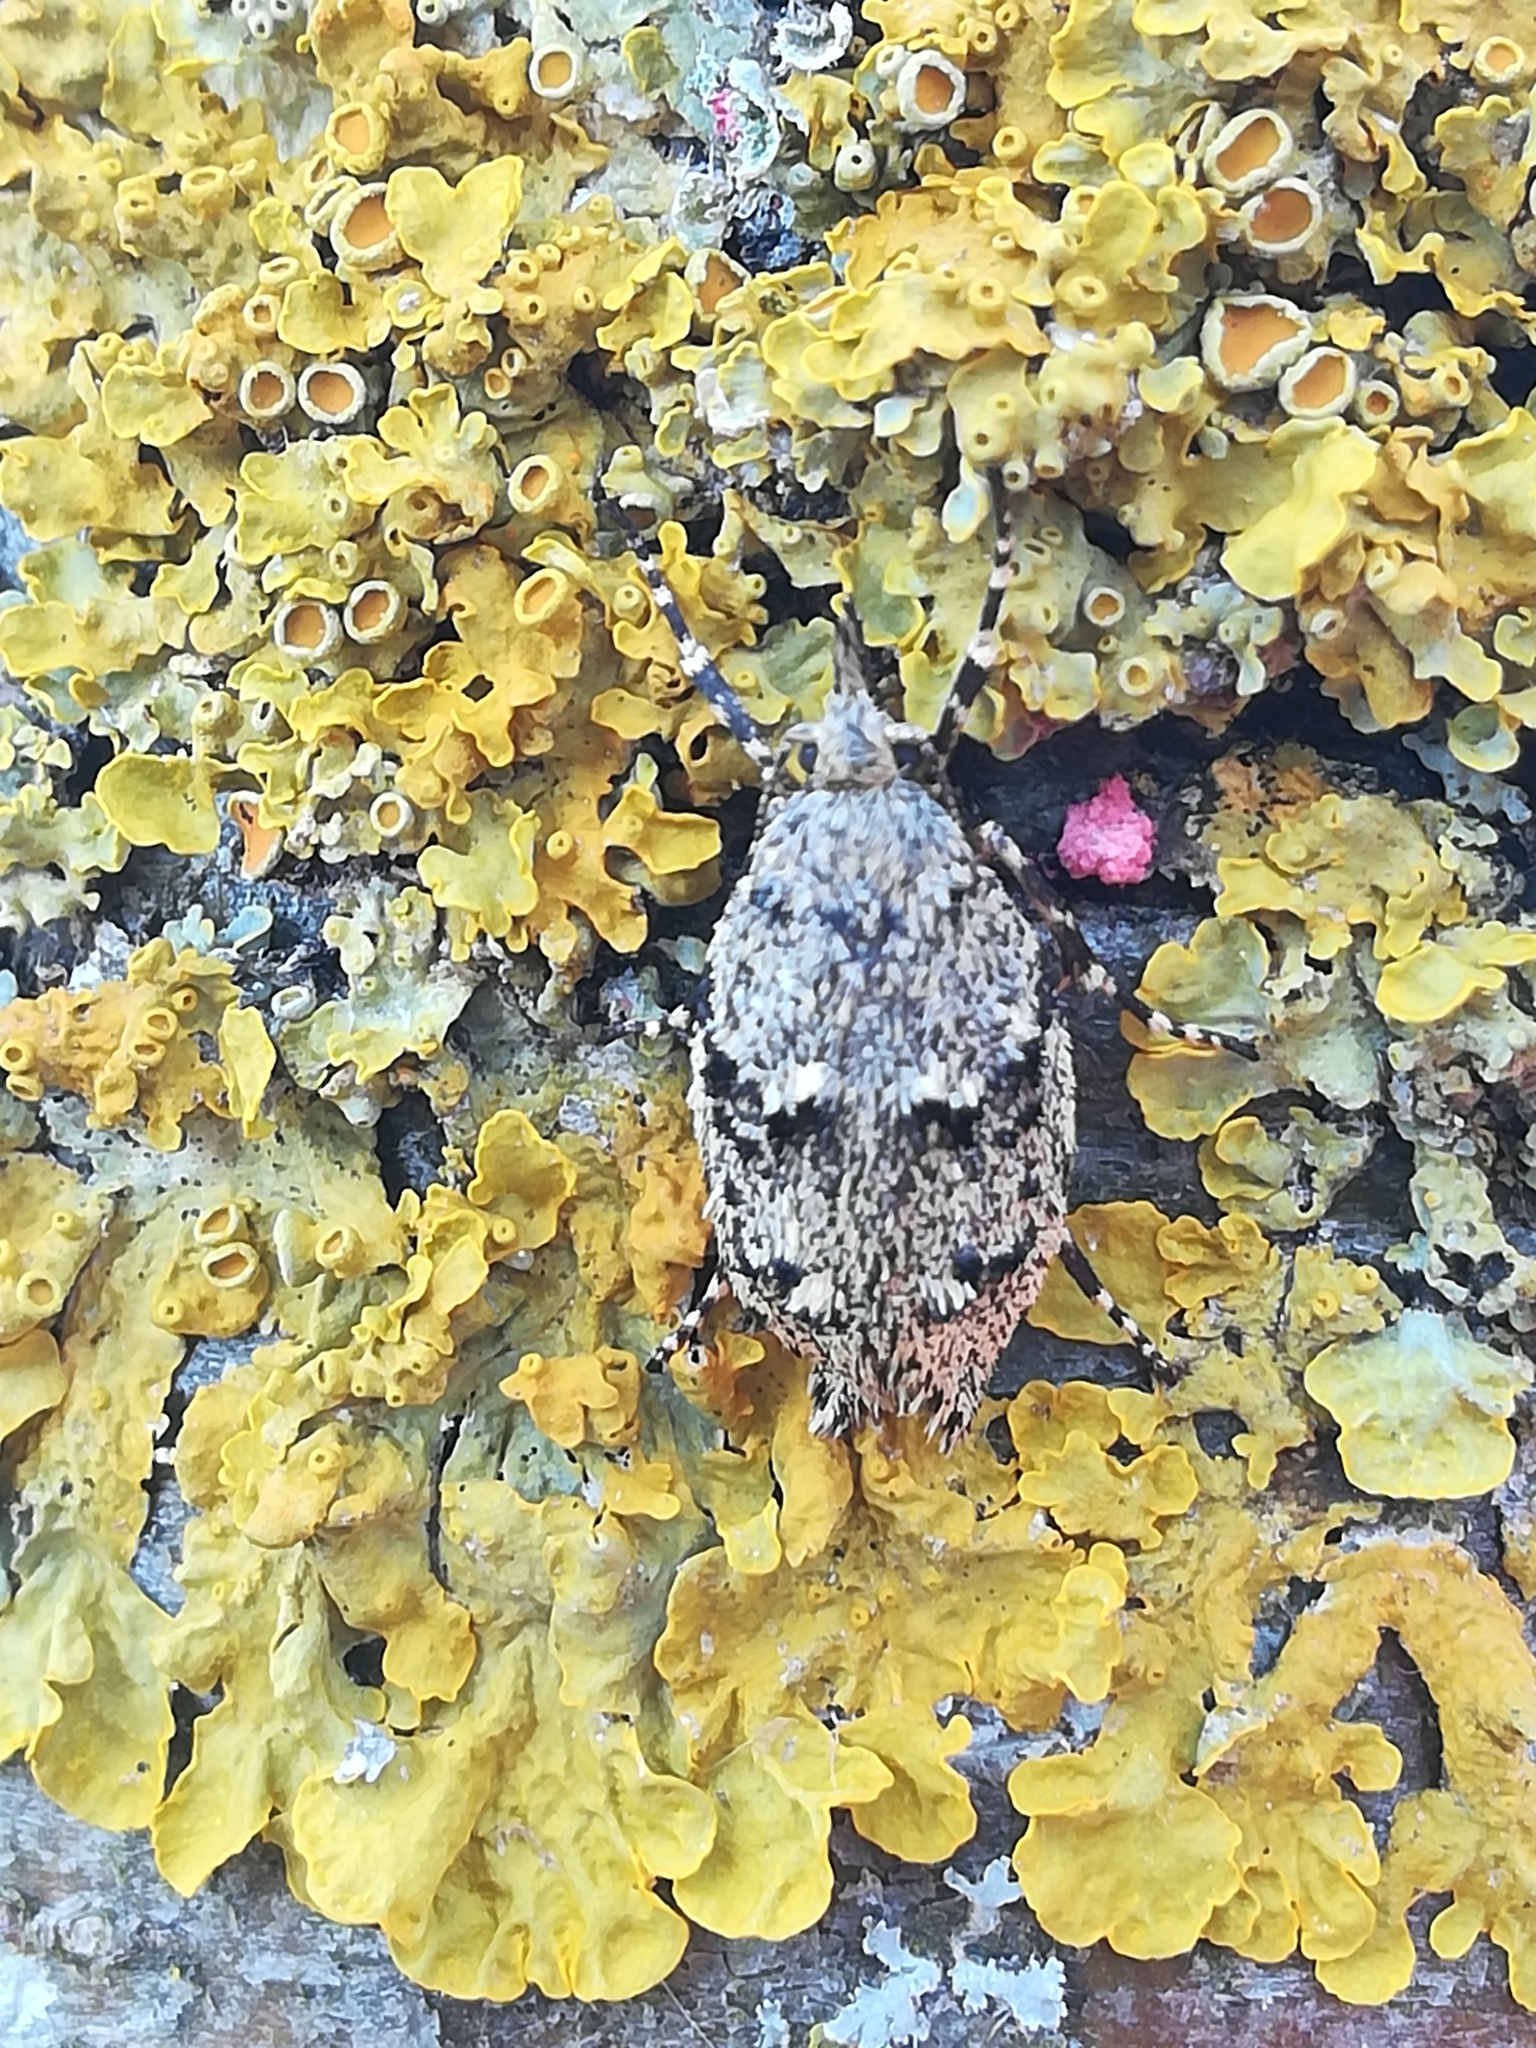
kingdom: Animalia
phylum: Arthropoda
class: Insecta
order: Lepidoptera
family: Lypusidae
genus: Diurnea
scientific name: Diurnea fagella
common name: March tubic
